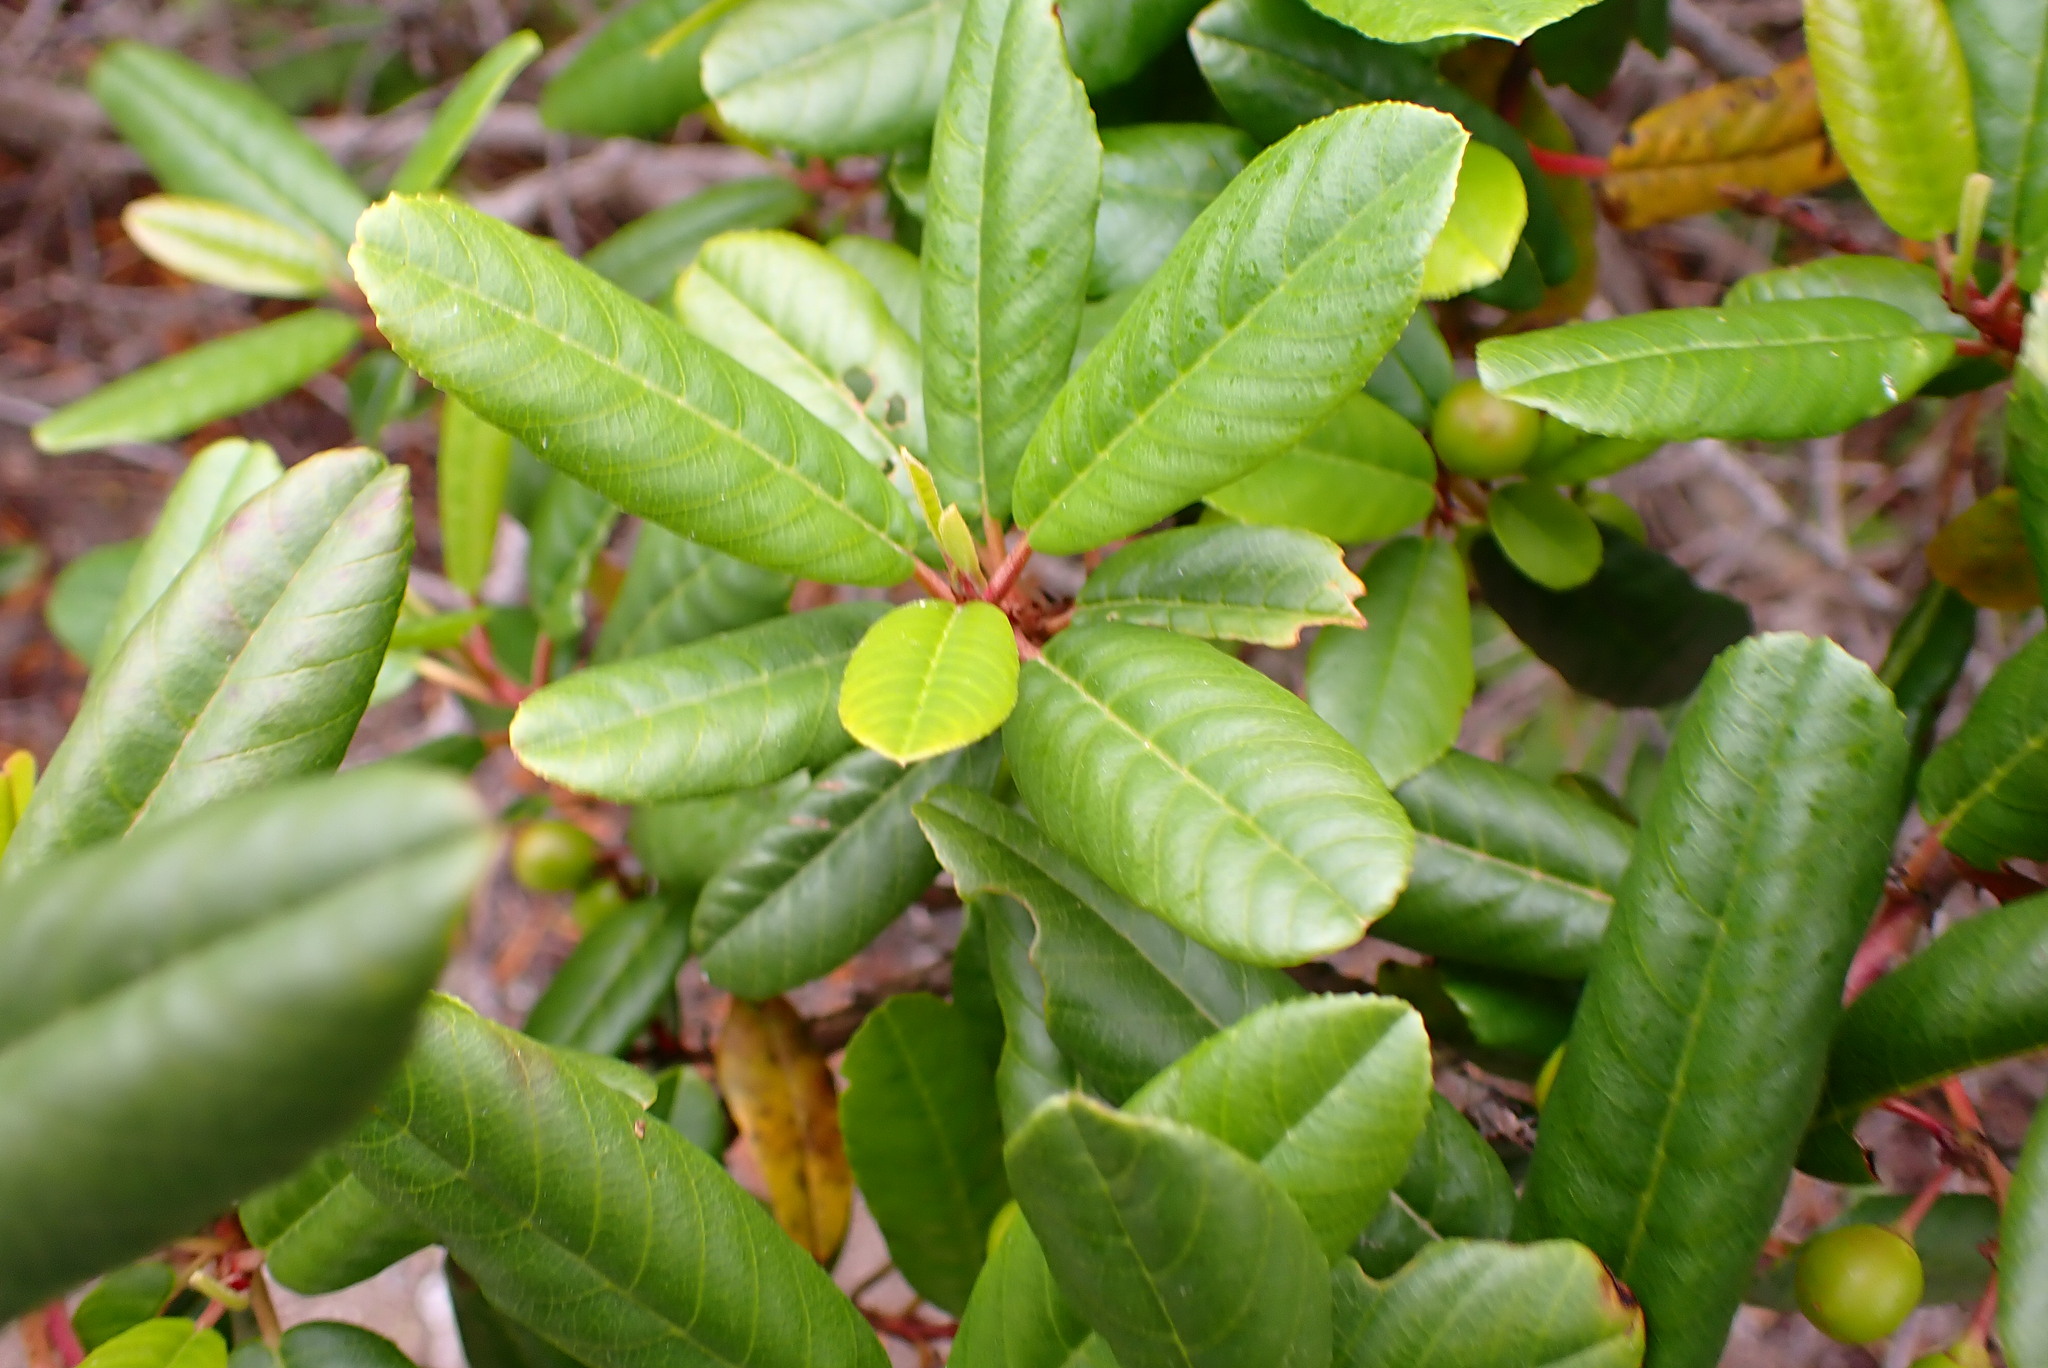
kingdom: Plantae
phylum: Tracheophyta
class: Magnoliopsida
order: Rosales
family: Rhamnaceae
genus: Frangula
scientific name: Frangula californica
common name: California buckthorn
